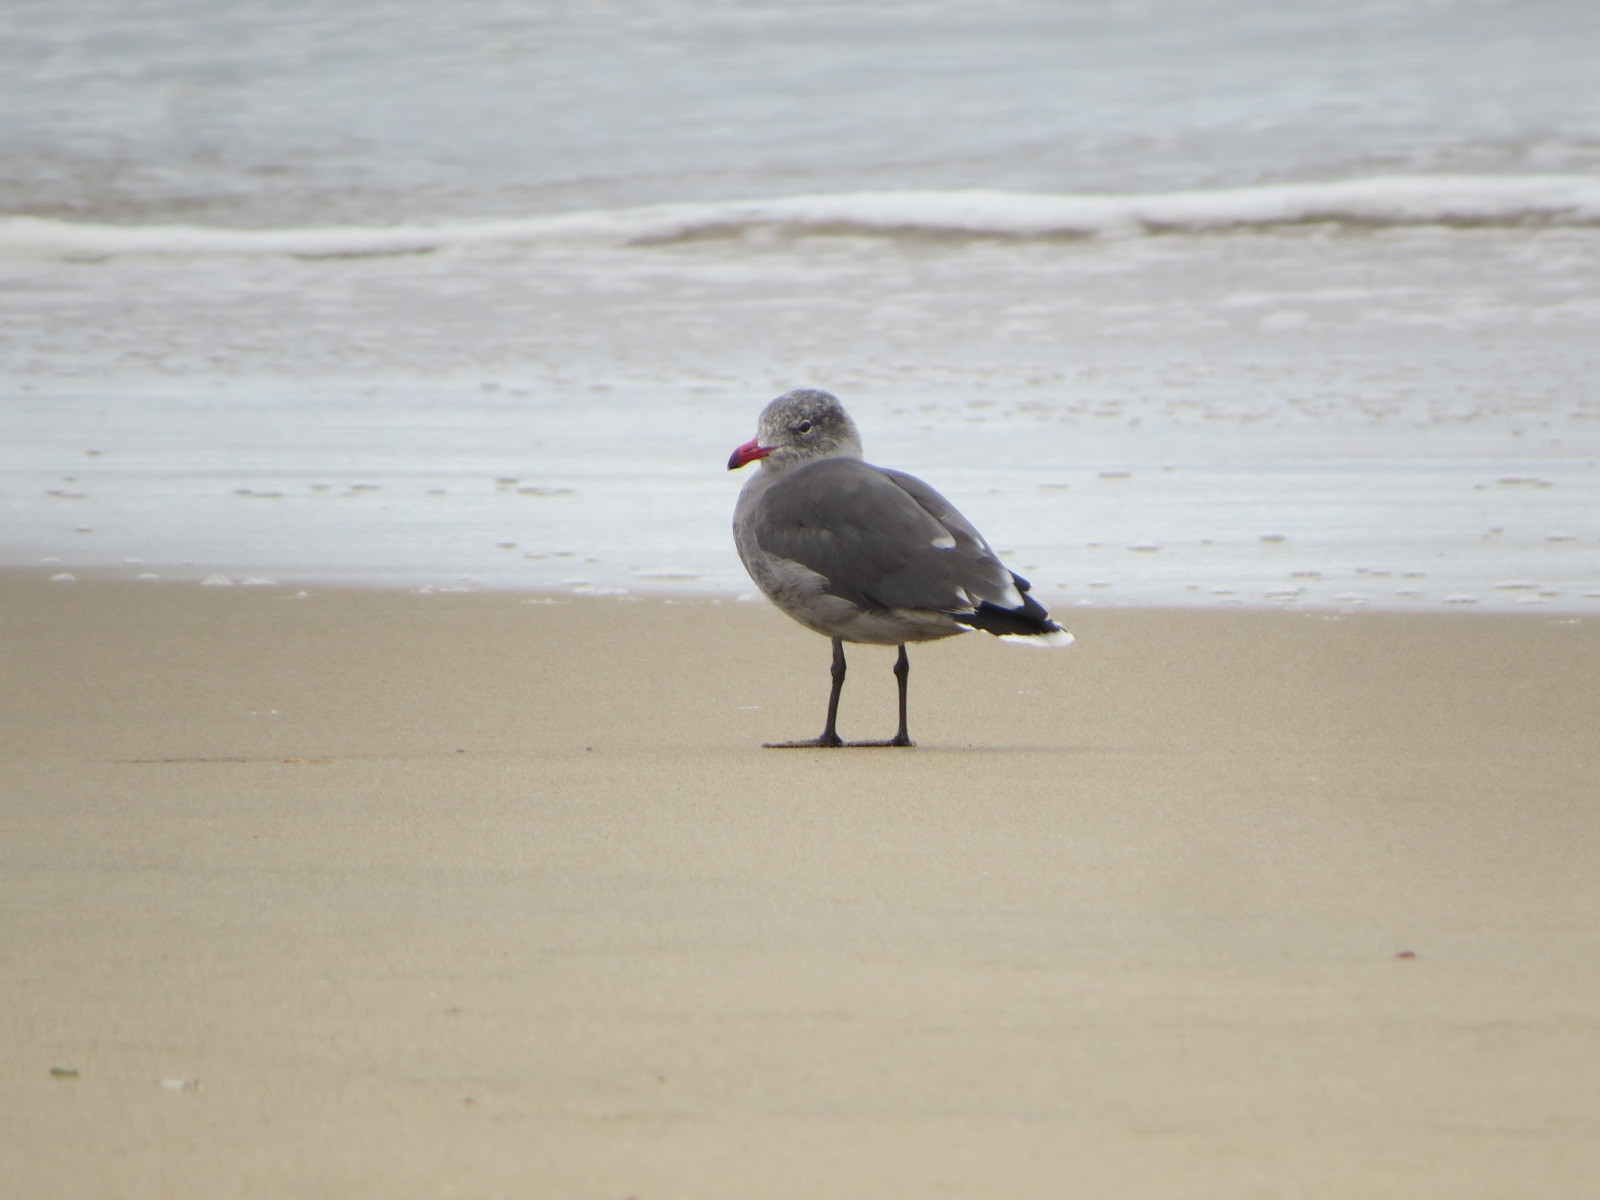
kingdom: Animalia
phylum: Chordata
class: Aves
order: Charadriiformes
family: Laridae
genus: Larus
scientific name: Larus heermanni
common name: Heermann's gull
